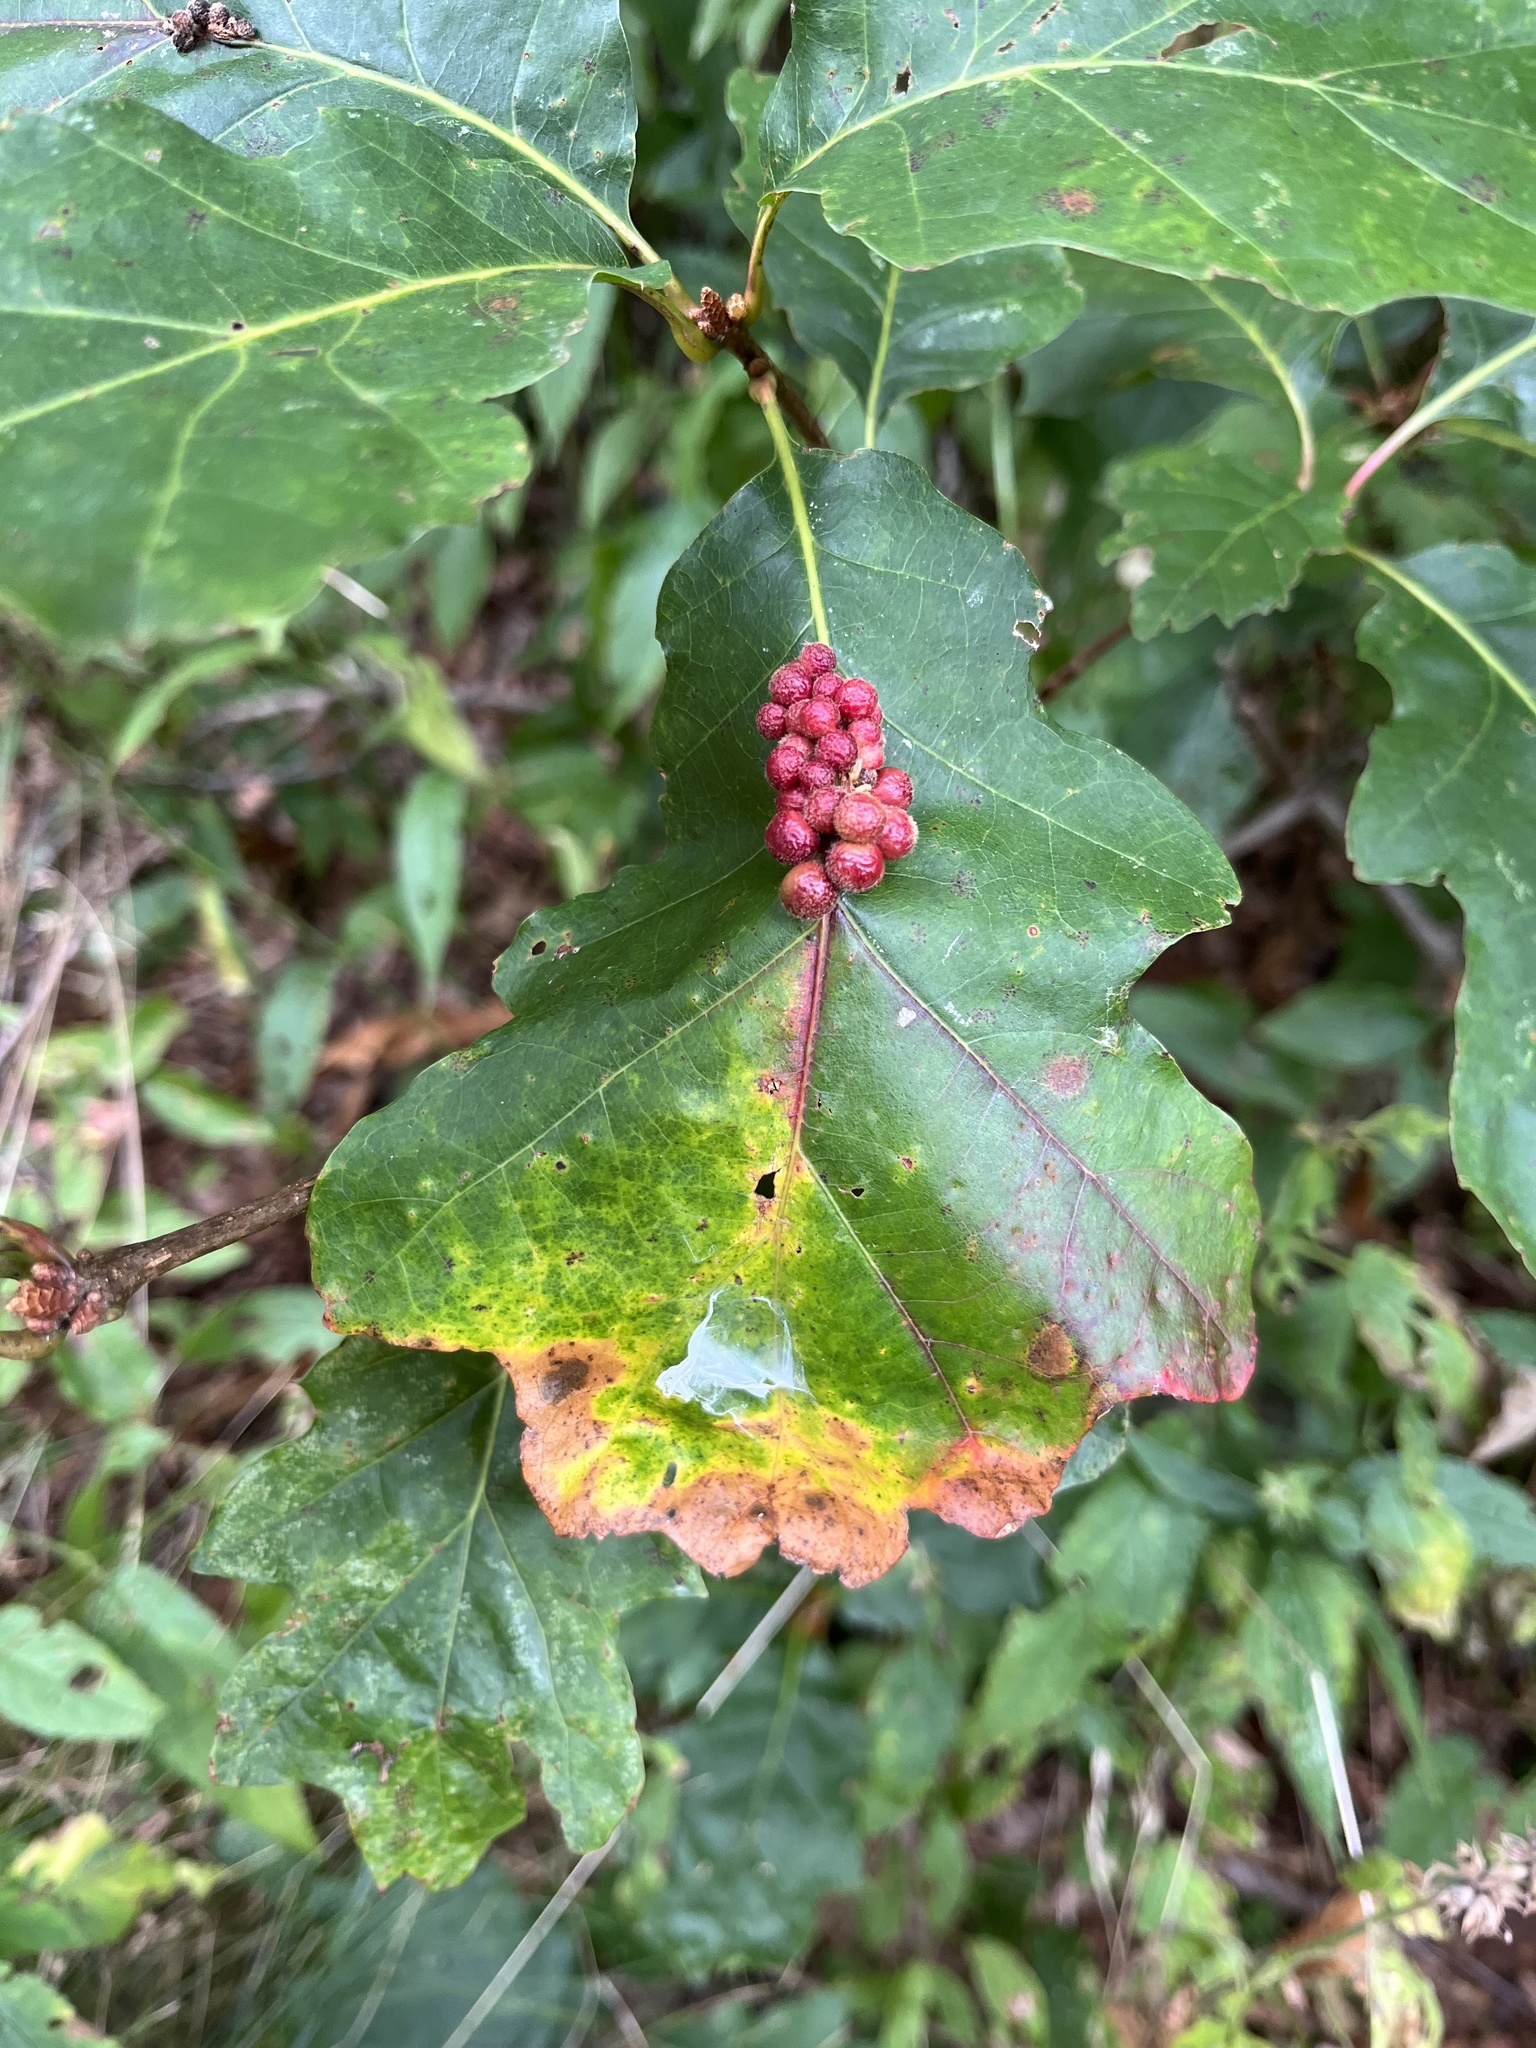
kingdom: Animalia
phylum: Arthropoda
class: Insecta
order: Hymenoptera
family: Cynipidae
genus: Callirhytis
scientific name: Callirhytis
